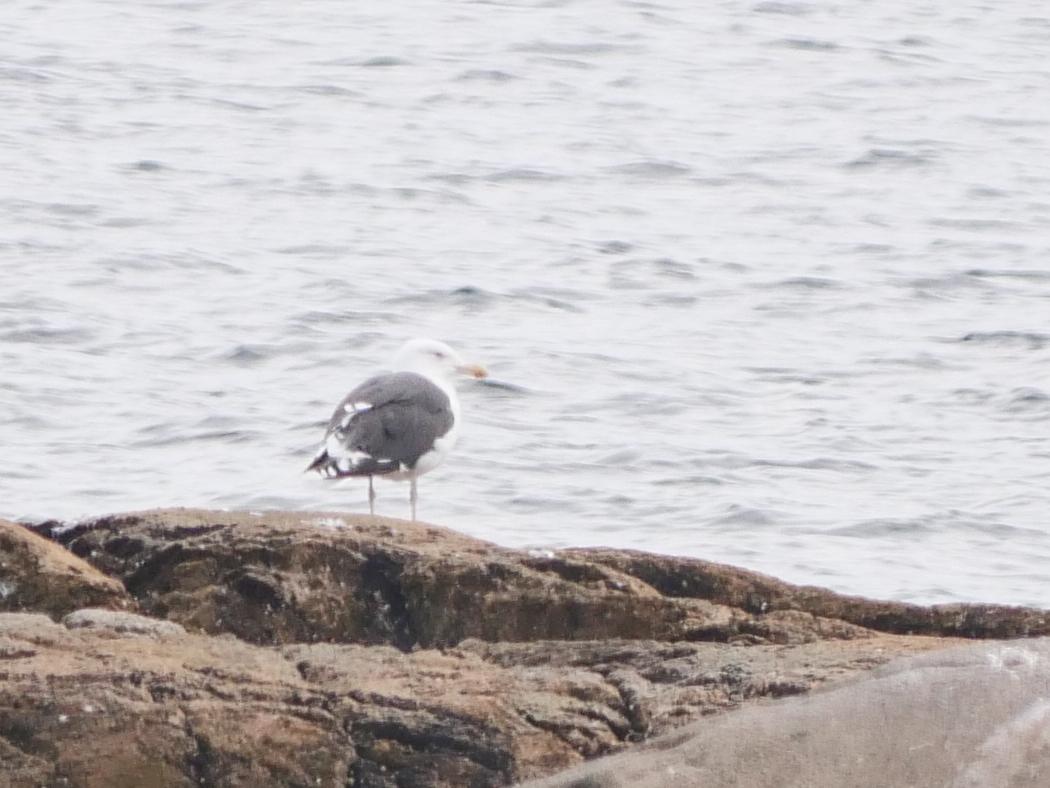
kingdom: Animalia
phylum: Chordata
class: Aves
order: Charadriiformes
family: Laridae
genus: Larus
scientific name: Larus marinus
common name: Great black-backed gull
